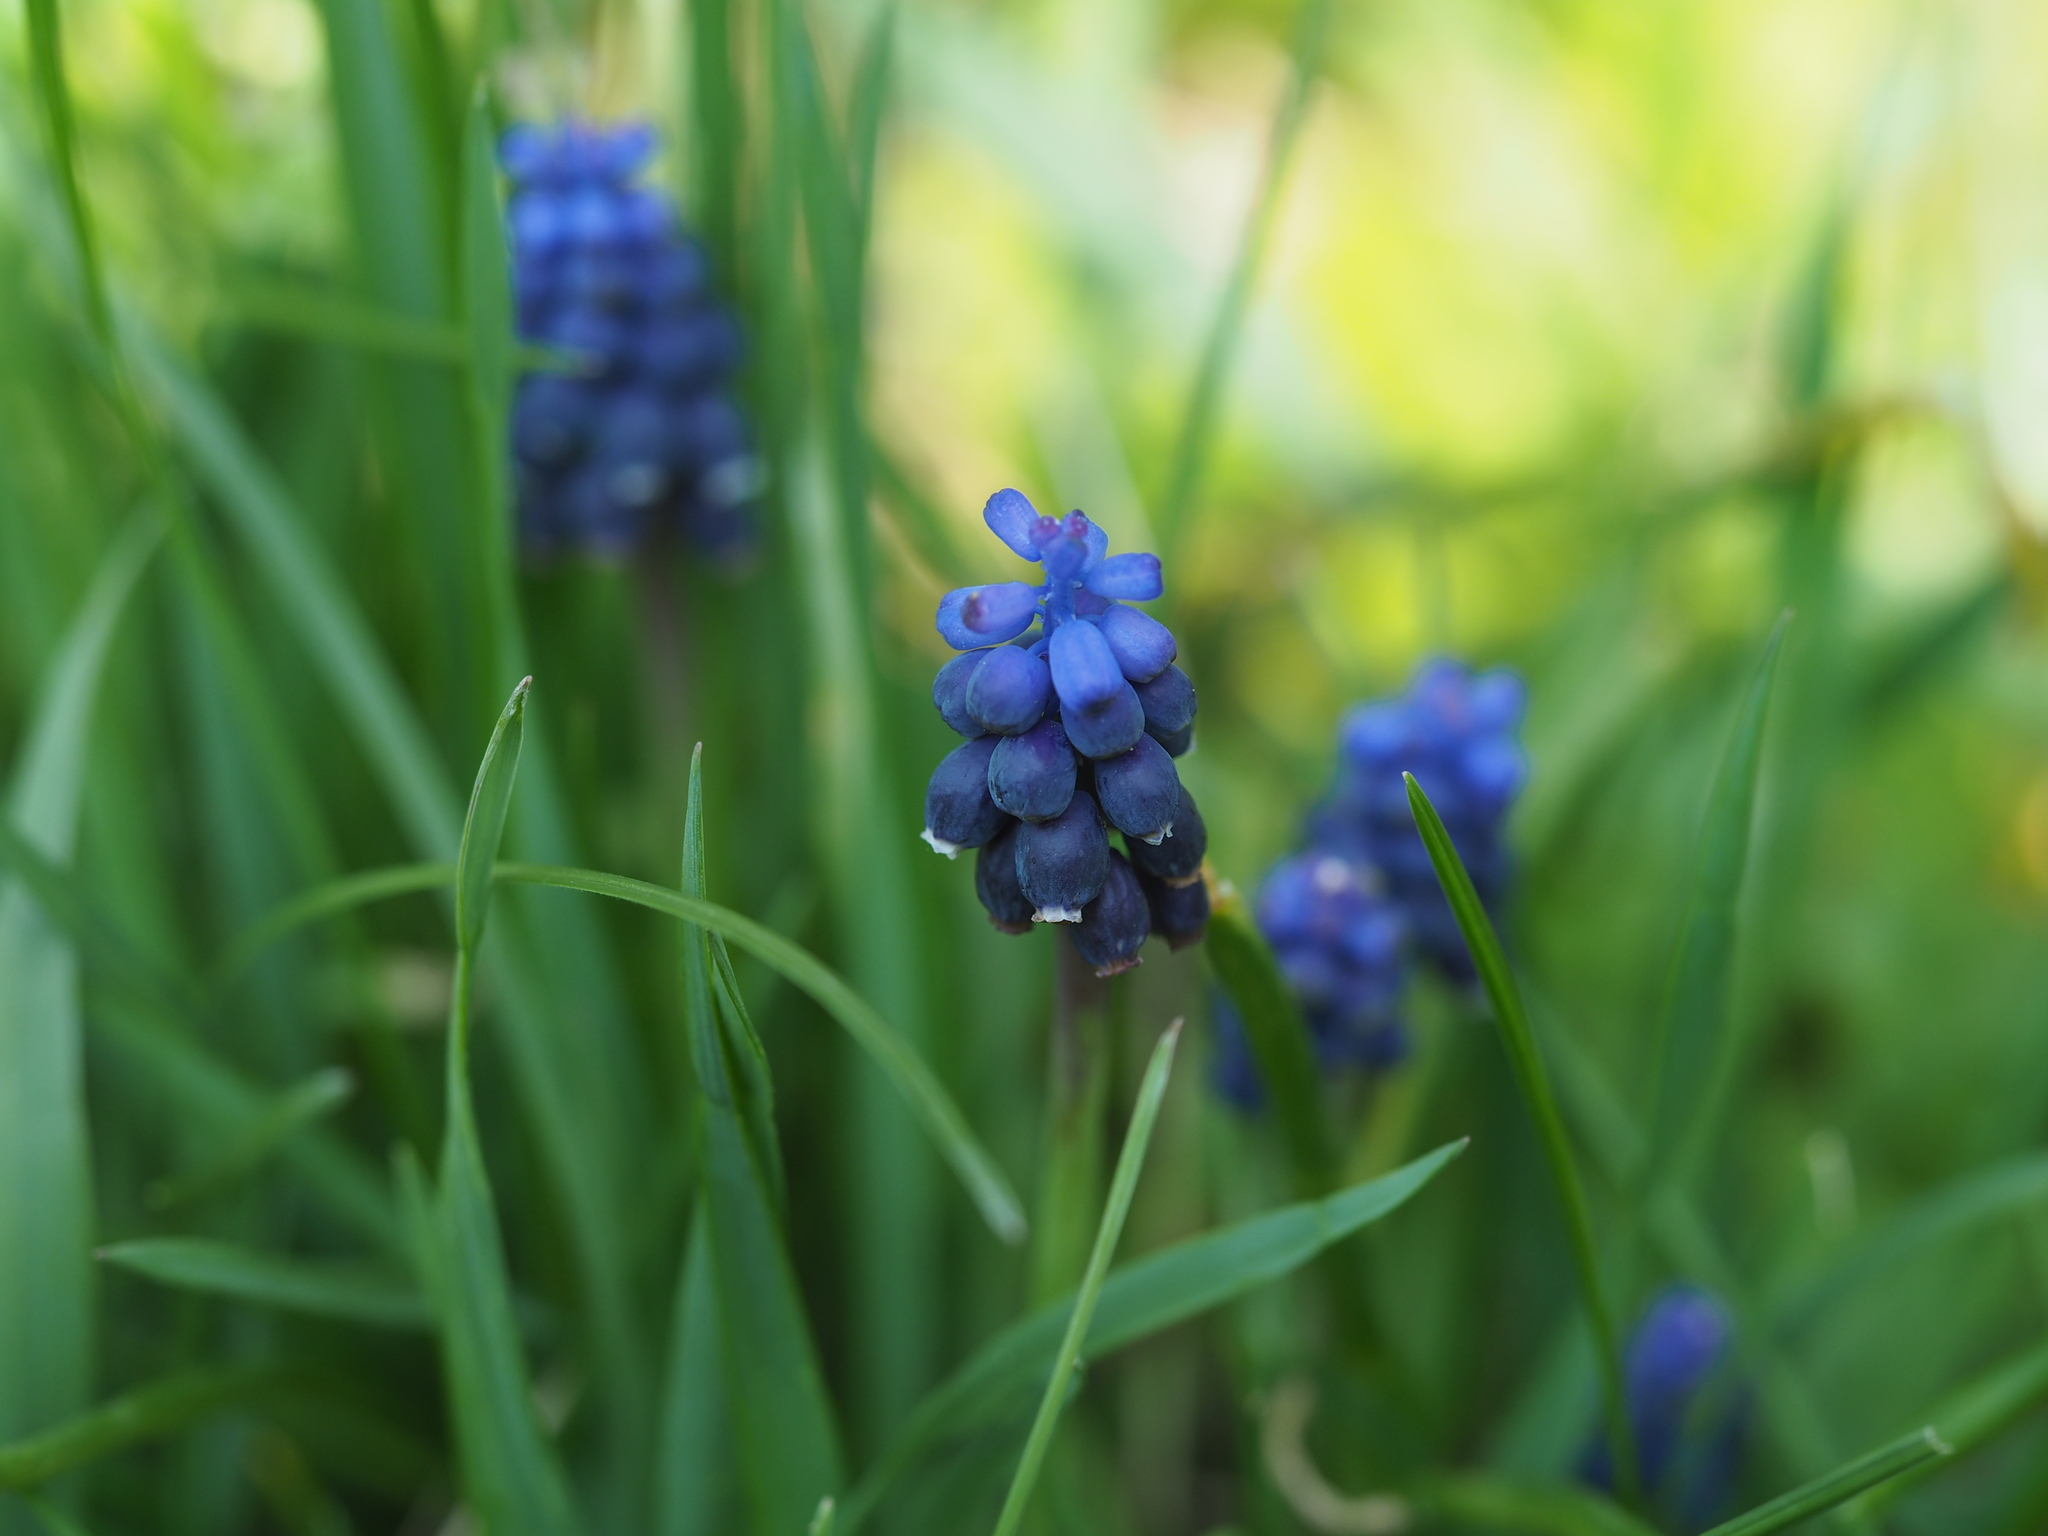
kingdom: Plantae
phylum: Tracheophyta
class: Liliopsida
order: Asparagales
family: Asparagaceae
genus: Muscari
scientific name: Muscari neglectum
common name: Grape-hyacinth
